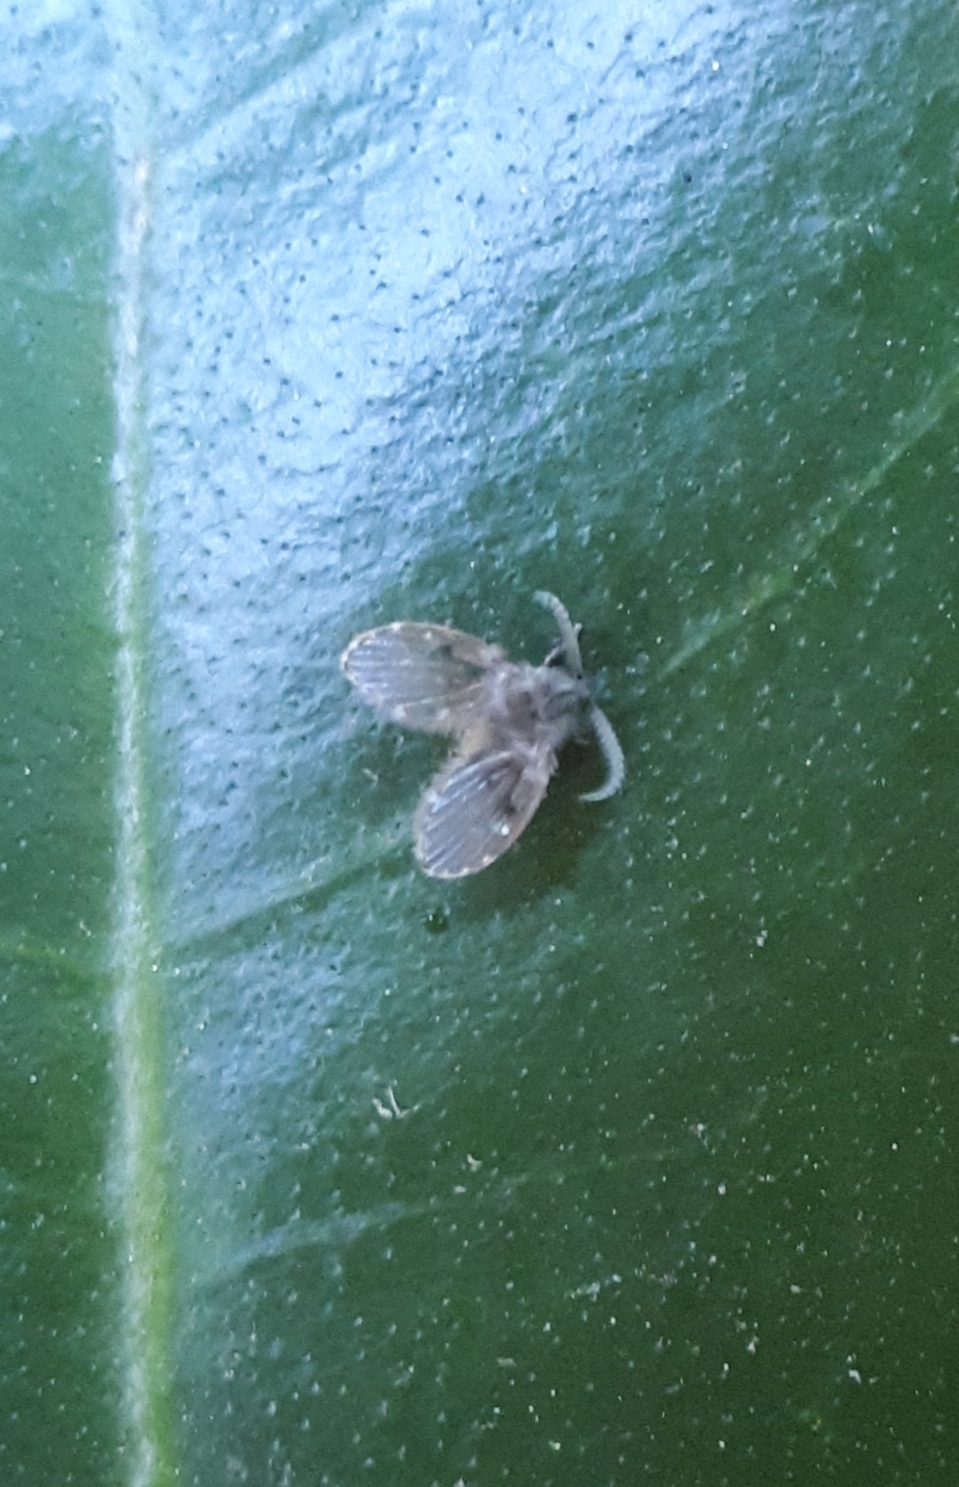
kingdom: Animalia
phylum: Arthropoda
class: Insecta
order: Diptera
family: Psychodidae
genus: Clogmia
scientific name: Clogmia albipunctatus
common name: White-spotted moth fly
